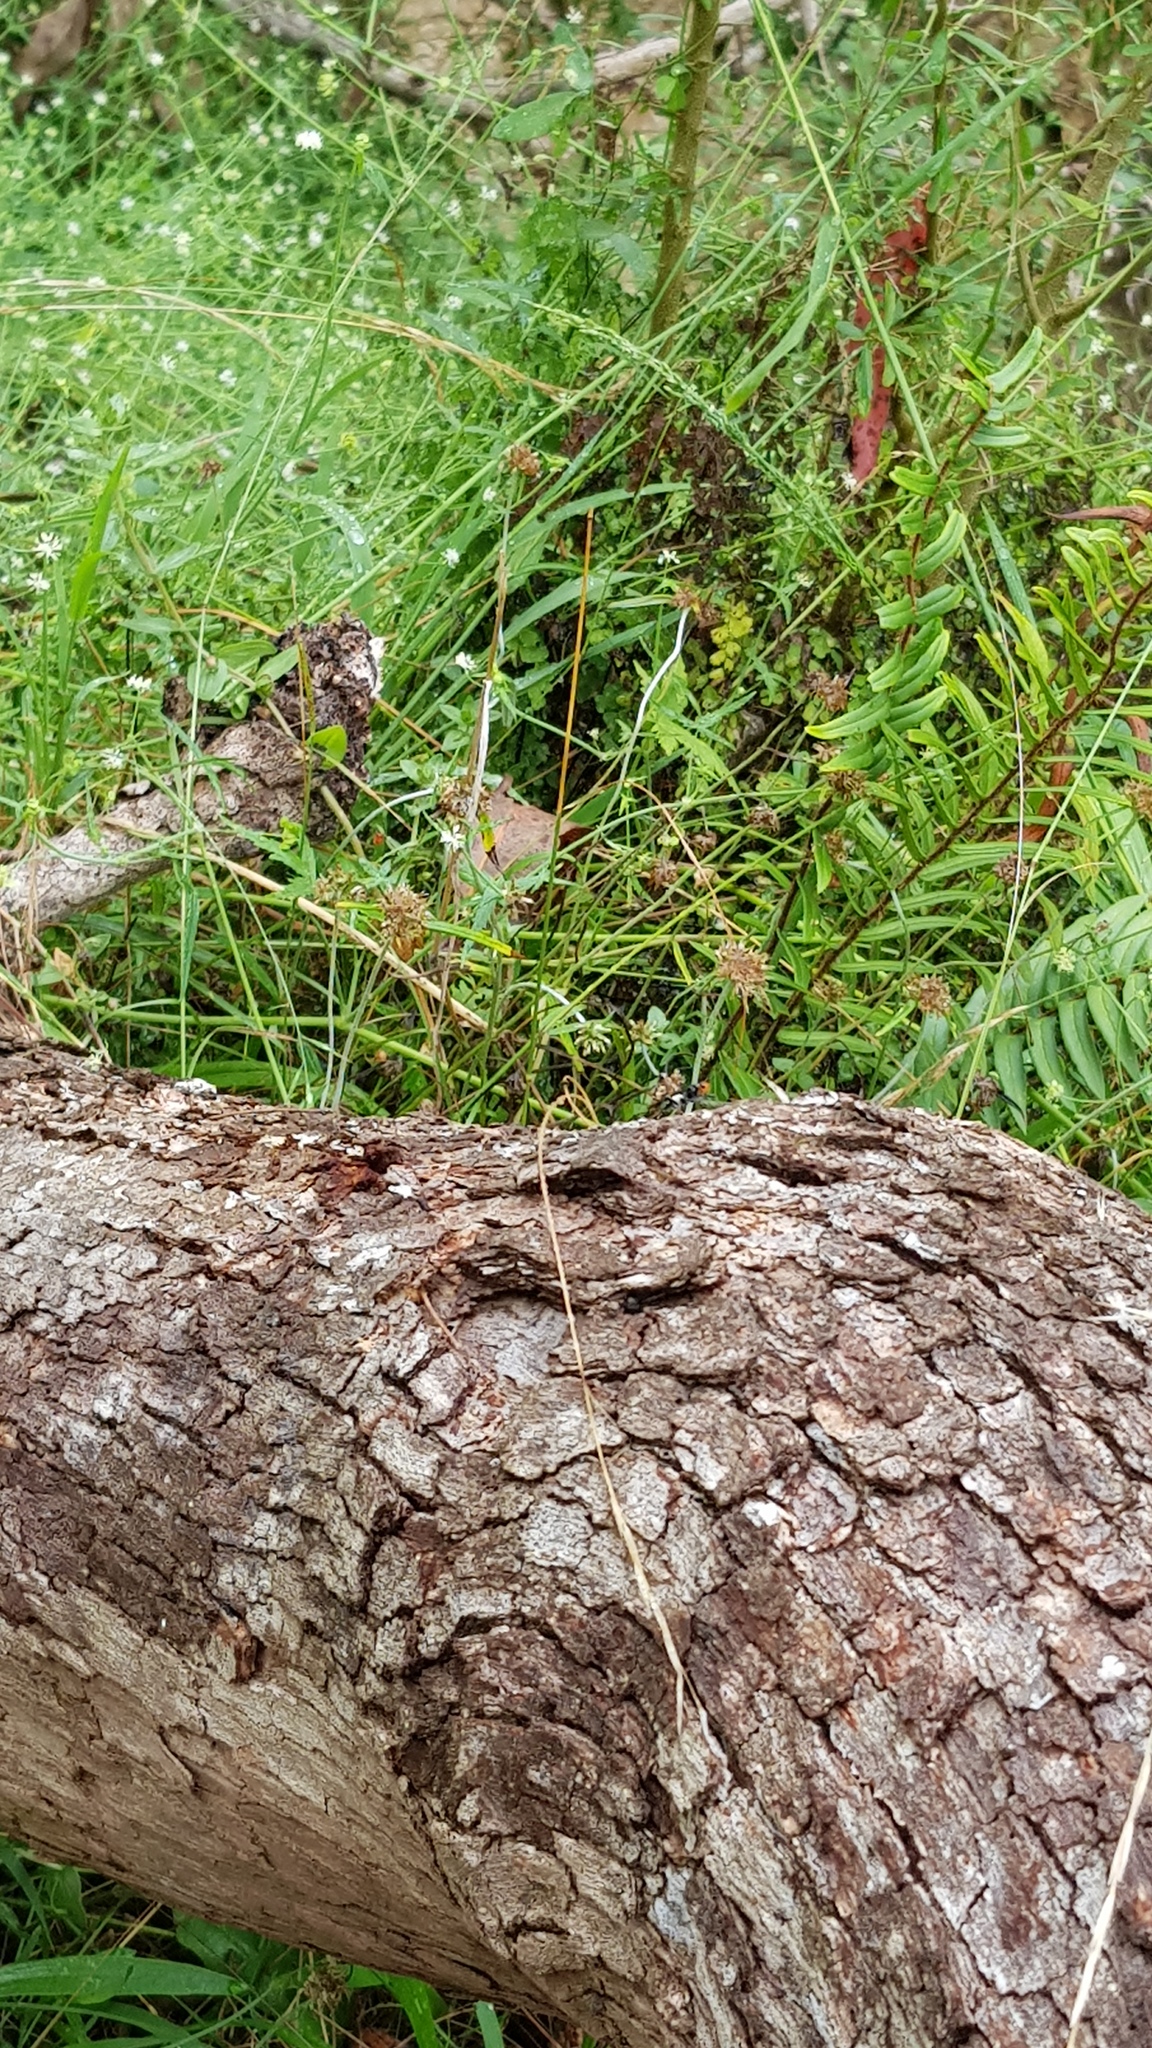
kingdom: Animalia
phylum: Arthropoda
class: Insecta
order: Hymenoptera
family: Braconidae
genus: Callibracon
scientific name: Callibracon capitator
